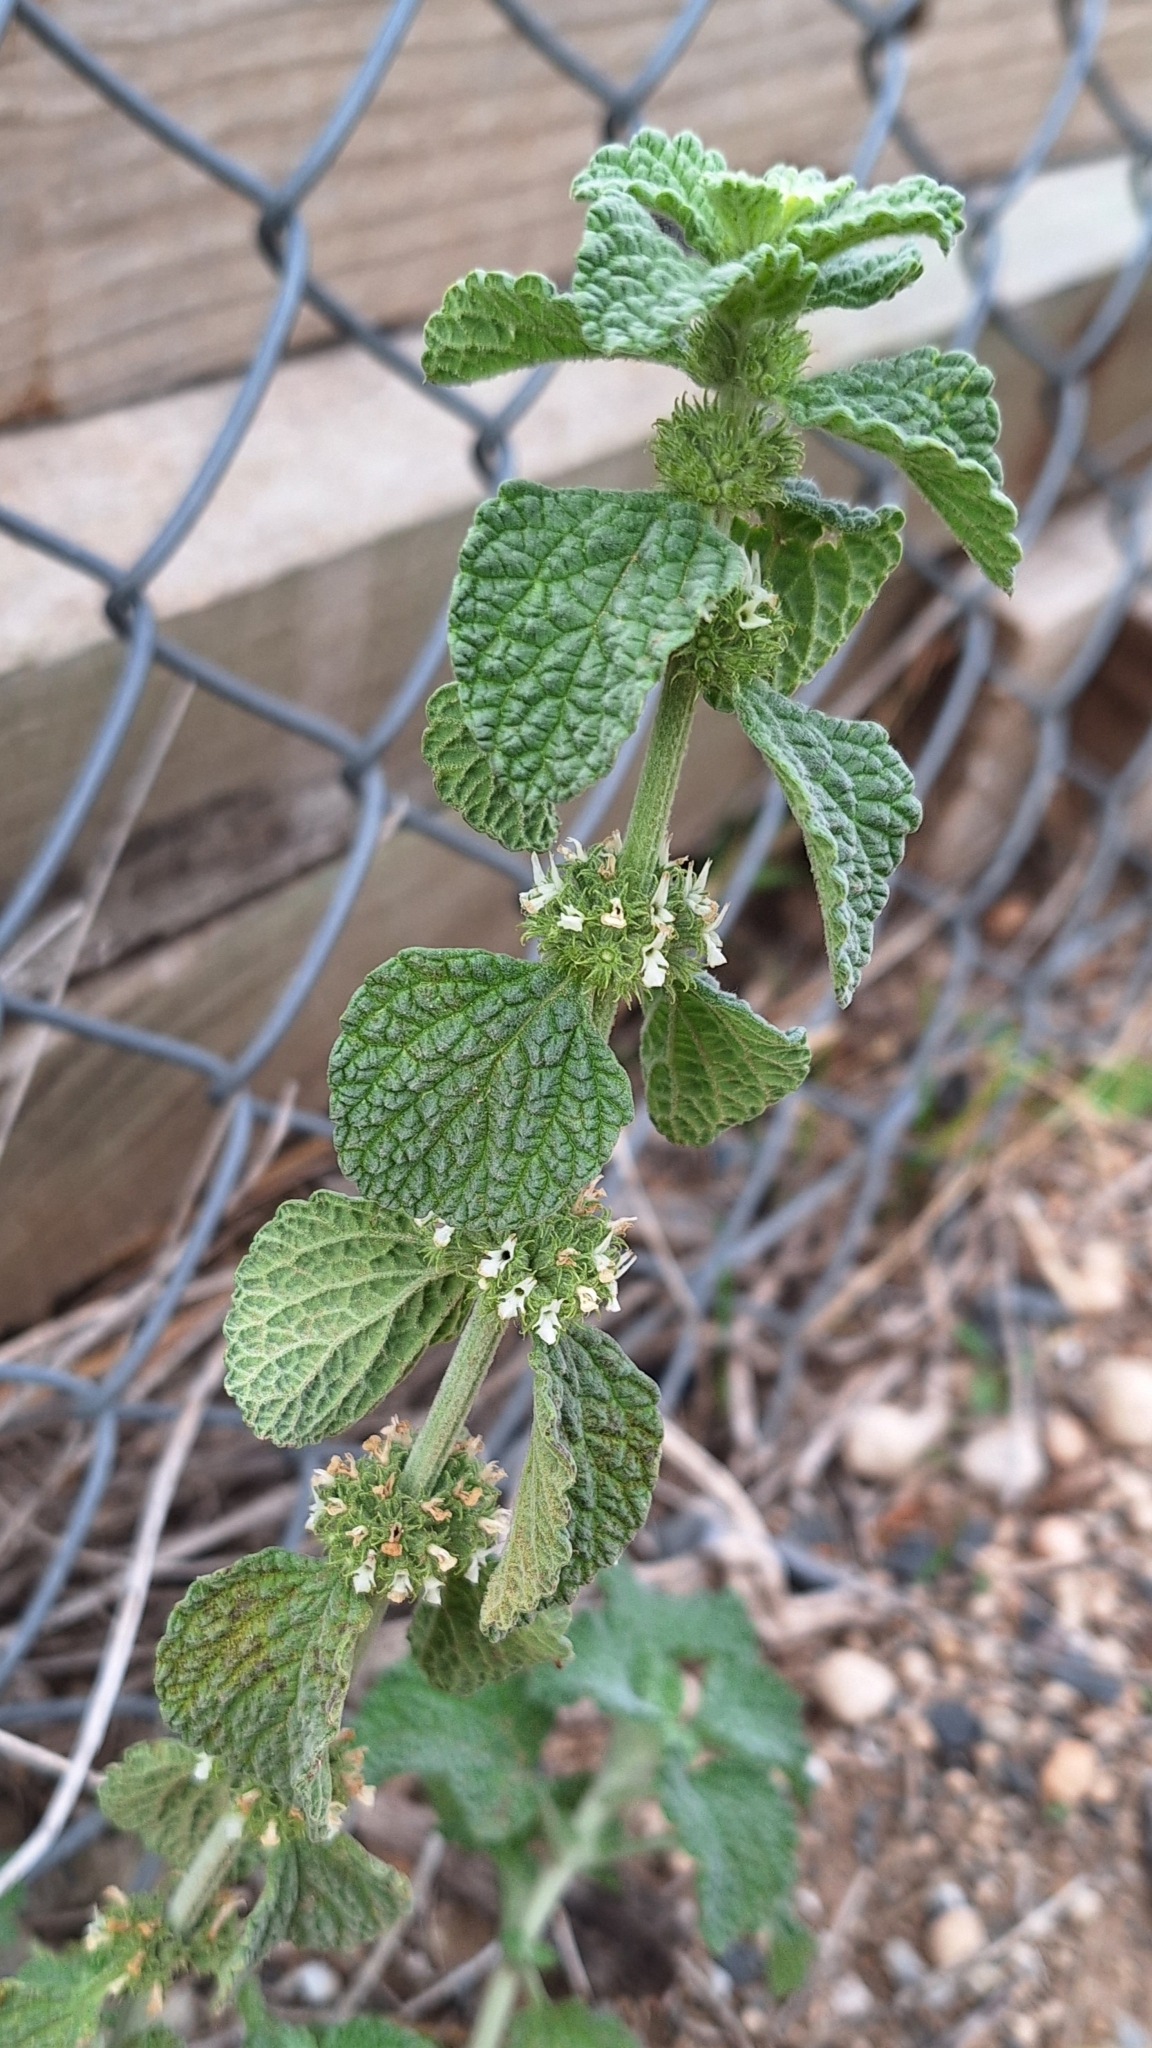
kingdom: Plantae
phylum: Tracheophyta
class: Magnoliopsida
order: Lamiales
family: Lamiaceae
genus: Marrubium
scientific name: Marrubium vulgare
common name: Horehound
